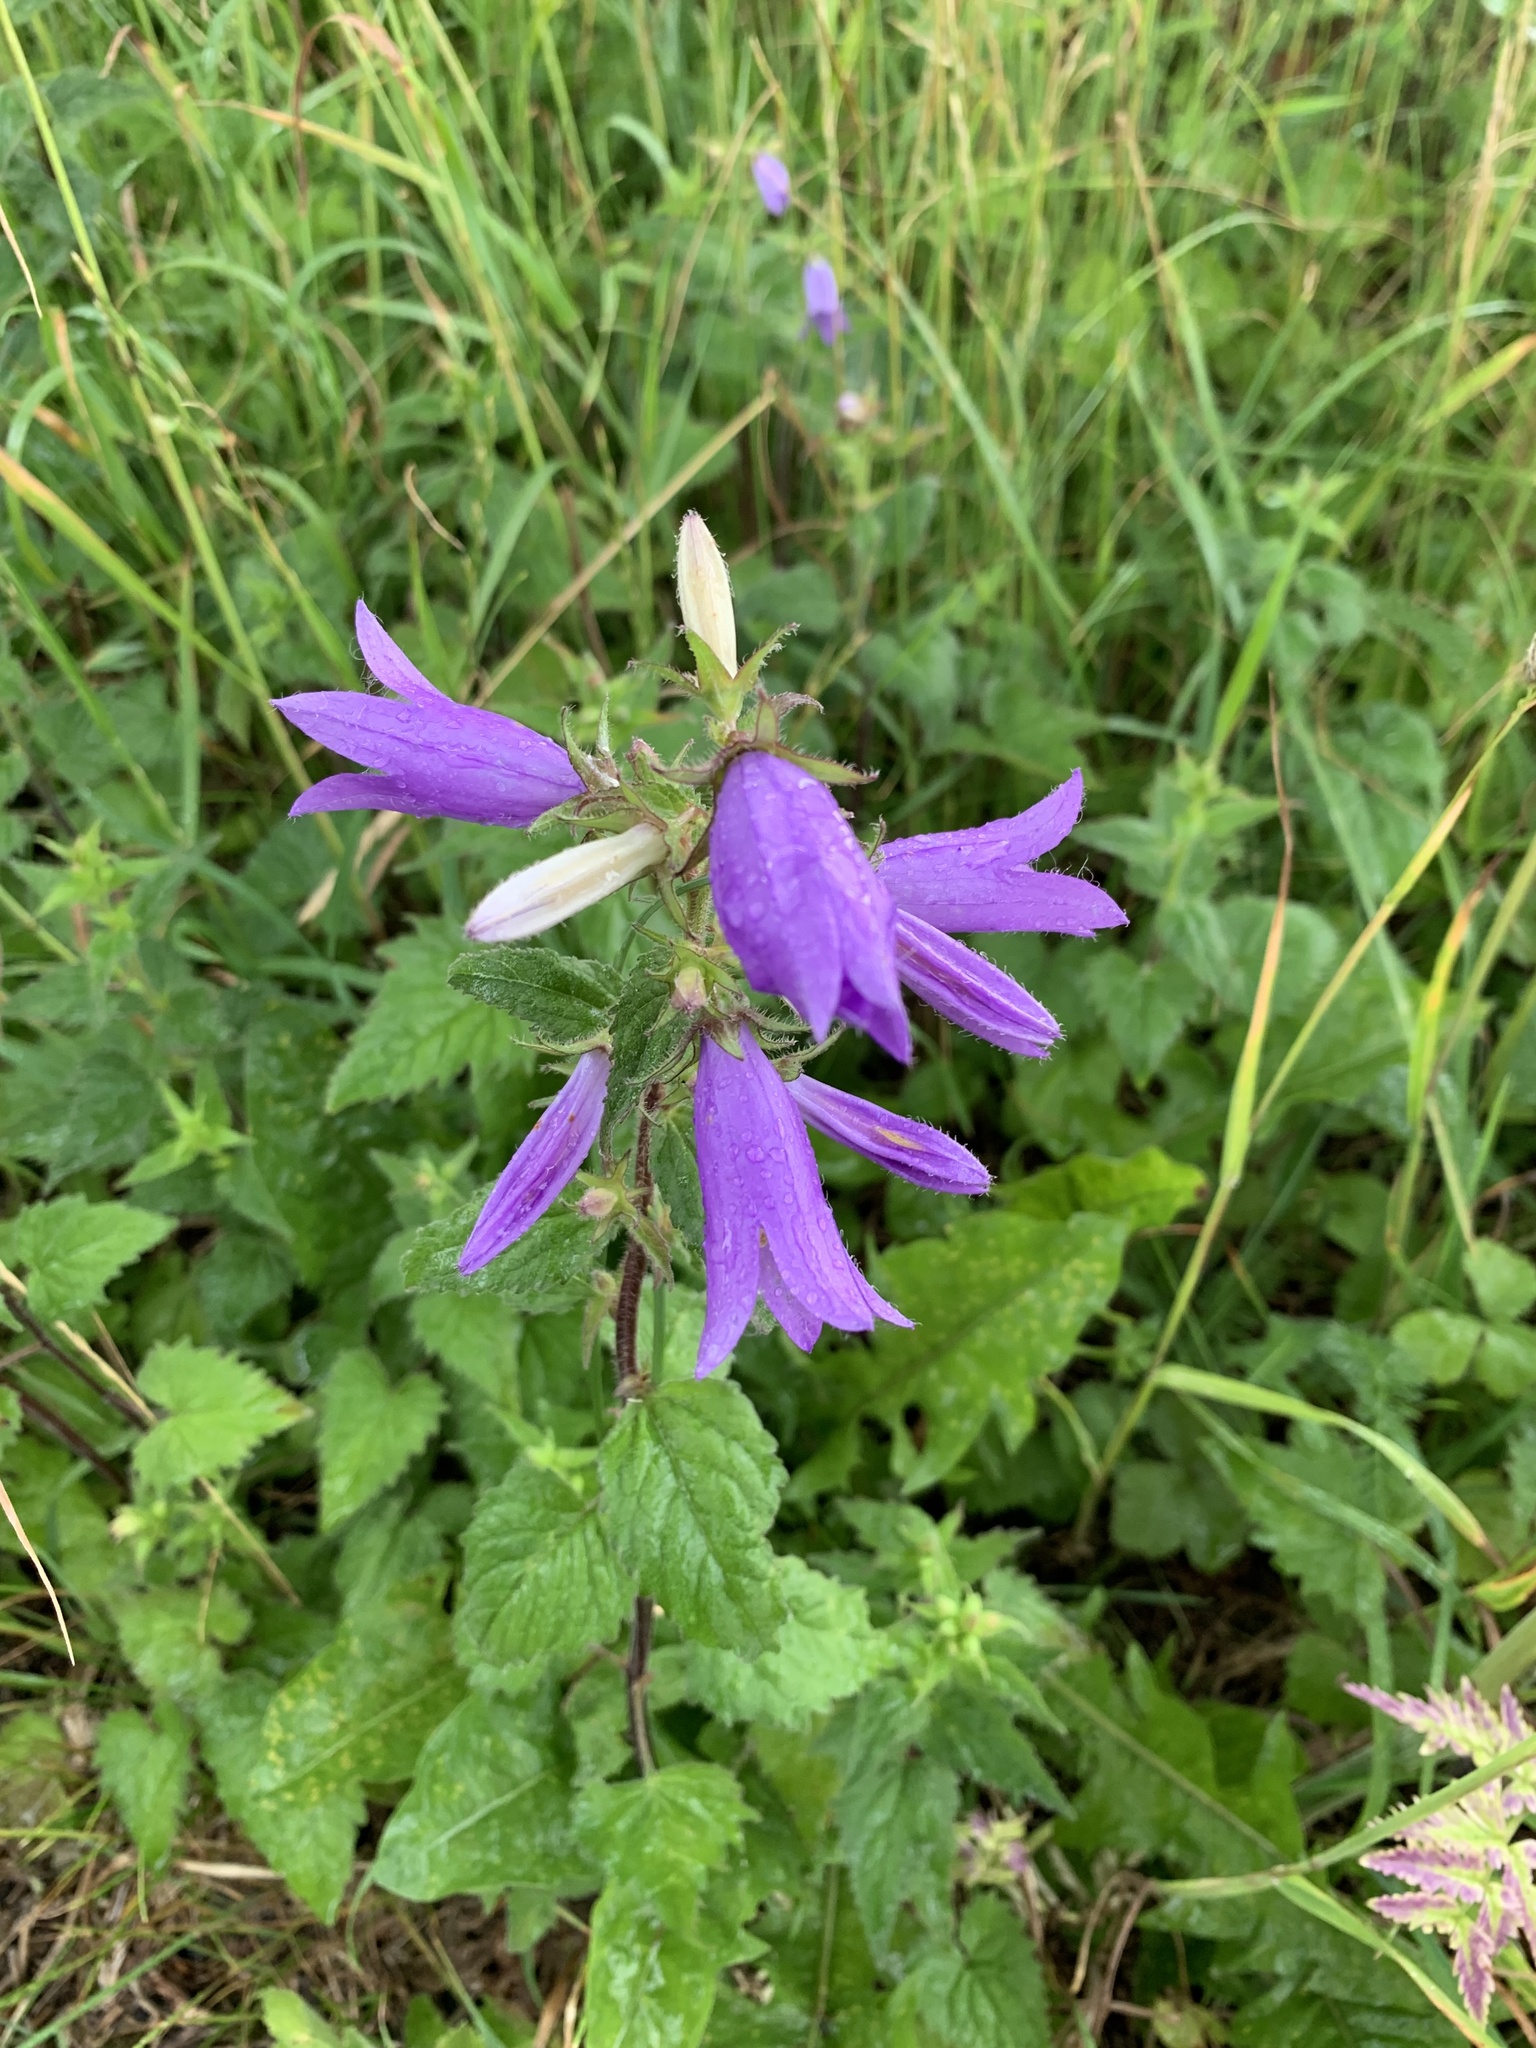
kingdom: Plantae
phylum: Tracheophyta
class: Magnoliopsida
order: Asterales
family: Campanulaceae
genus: Campanula
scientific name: Campanula trachelium
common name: Nettle-leaved bellflower
